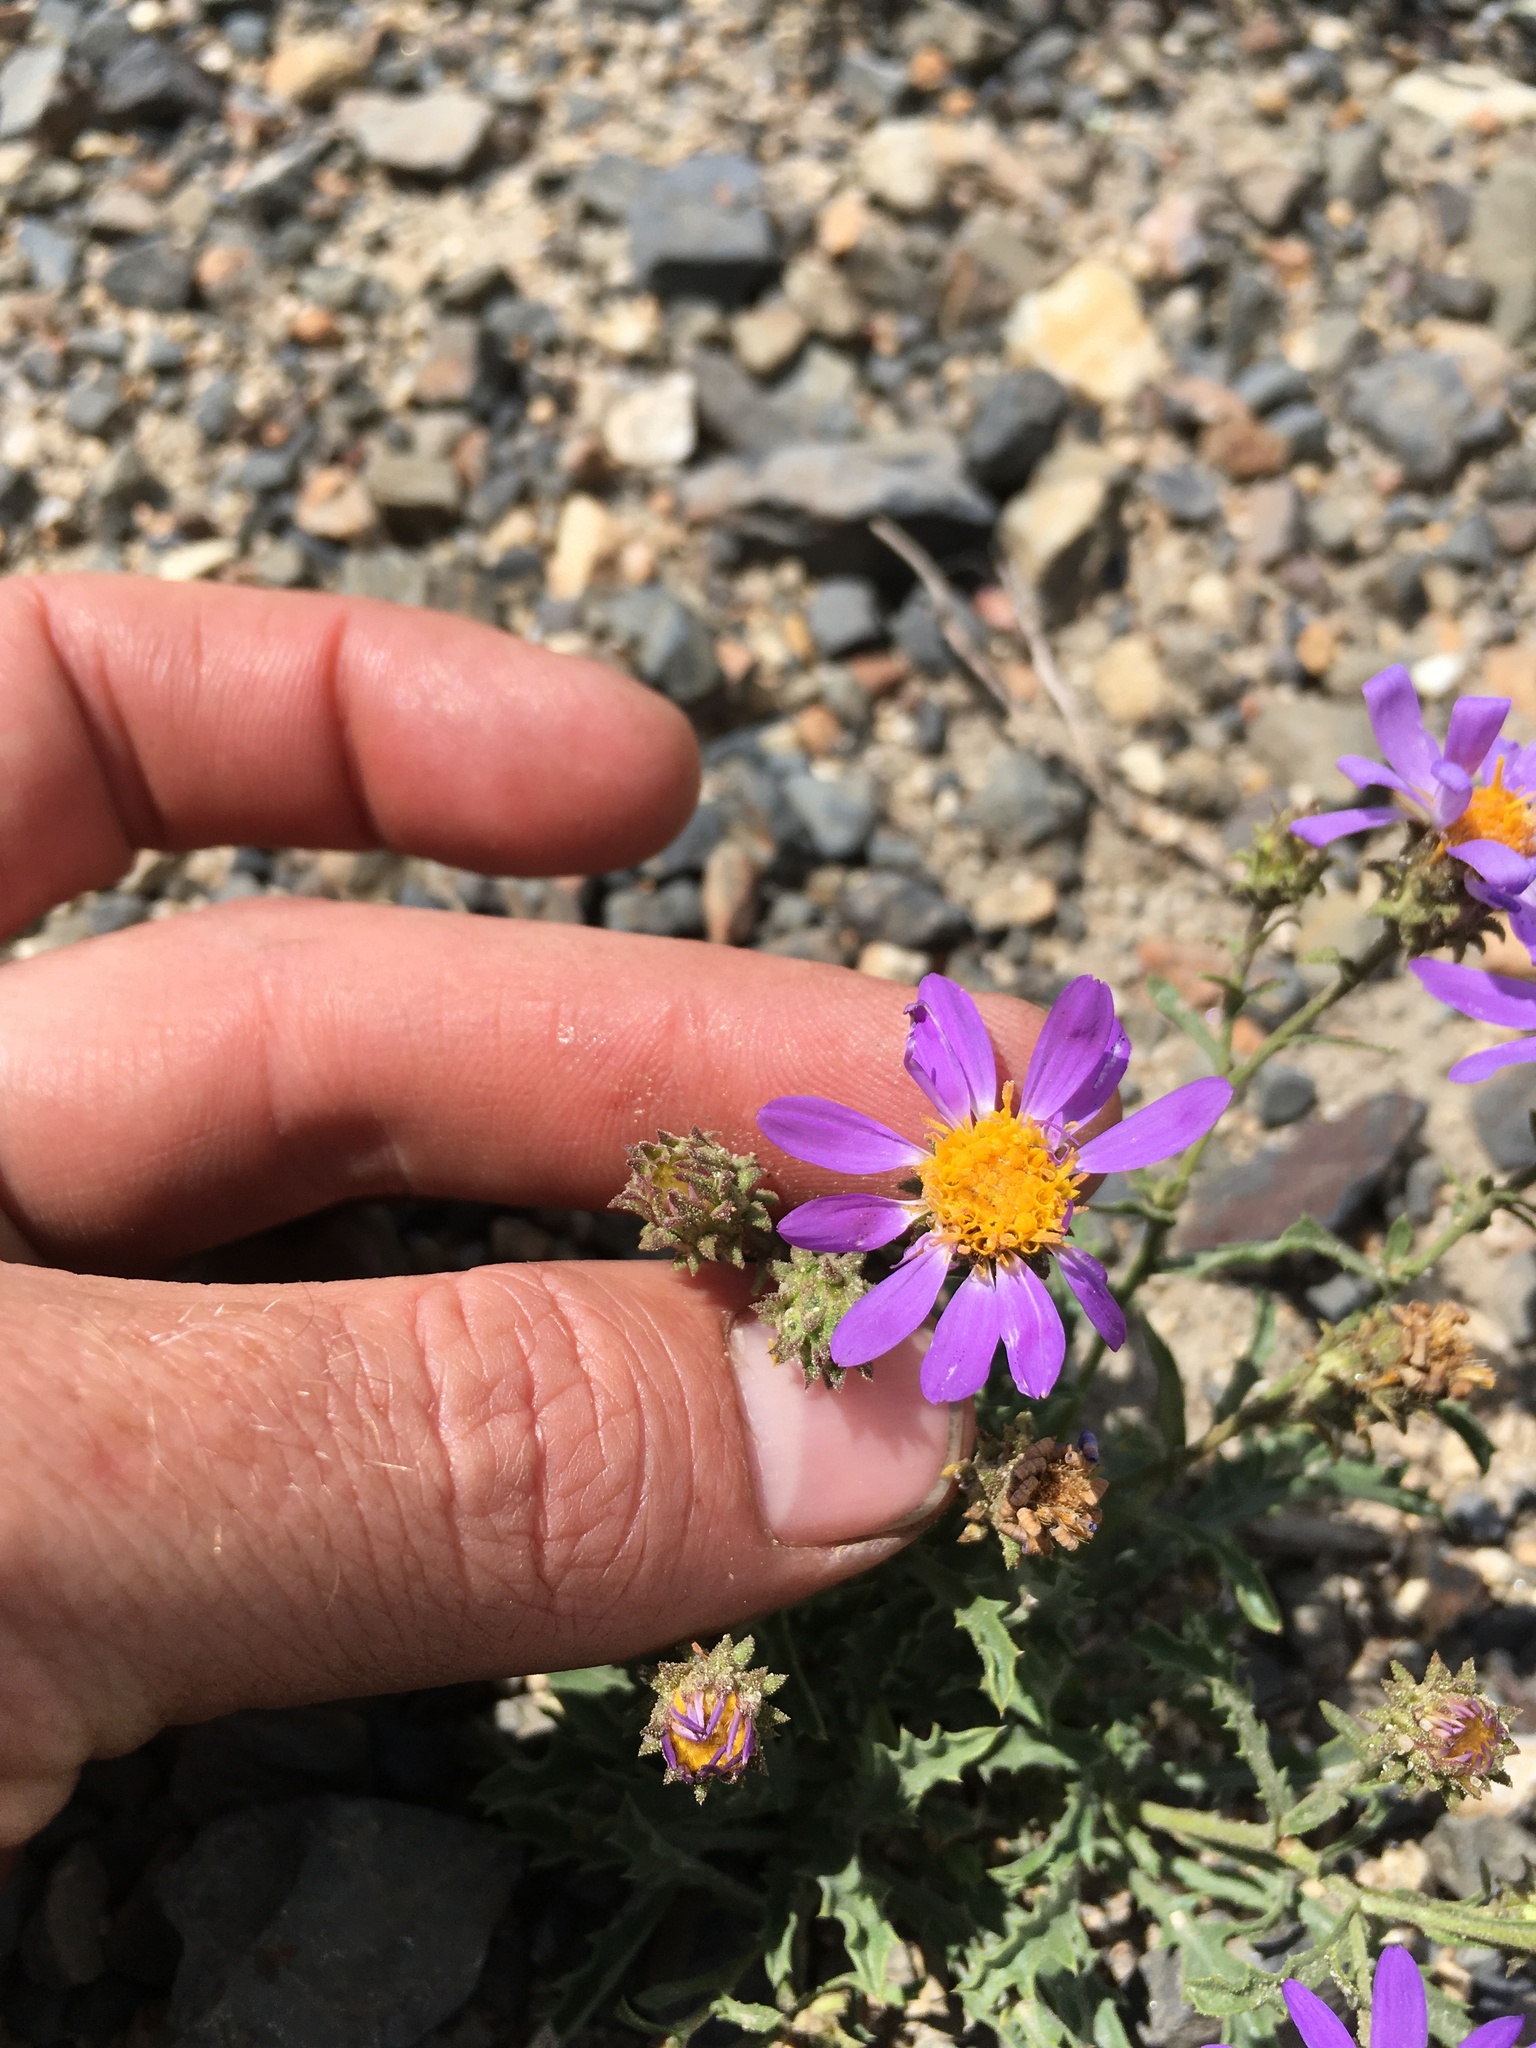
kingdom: Plantae
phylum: Tracheophyta
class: Magnoliopsida
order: Asterales
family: Asteraceae
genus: Dieteria
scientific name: Dieteria canescens
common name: Hoary-aster
